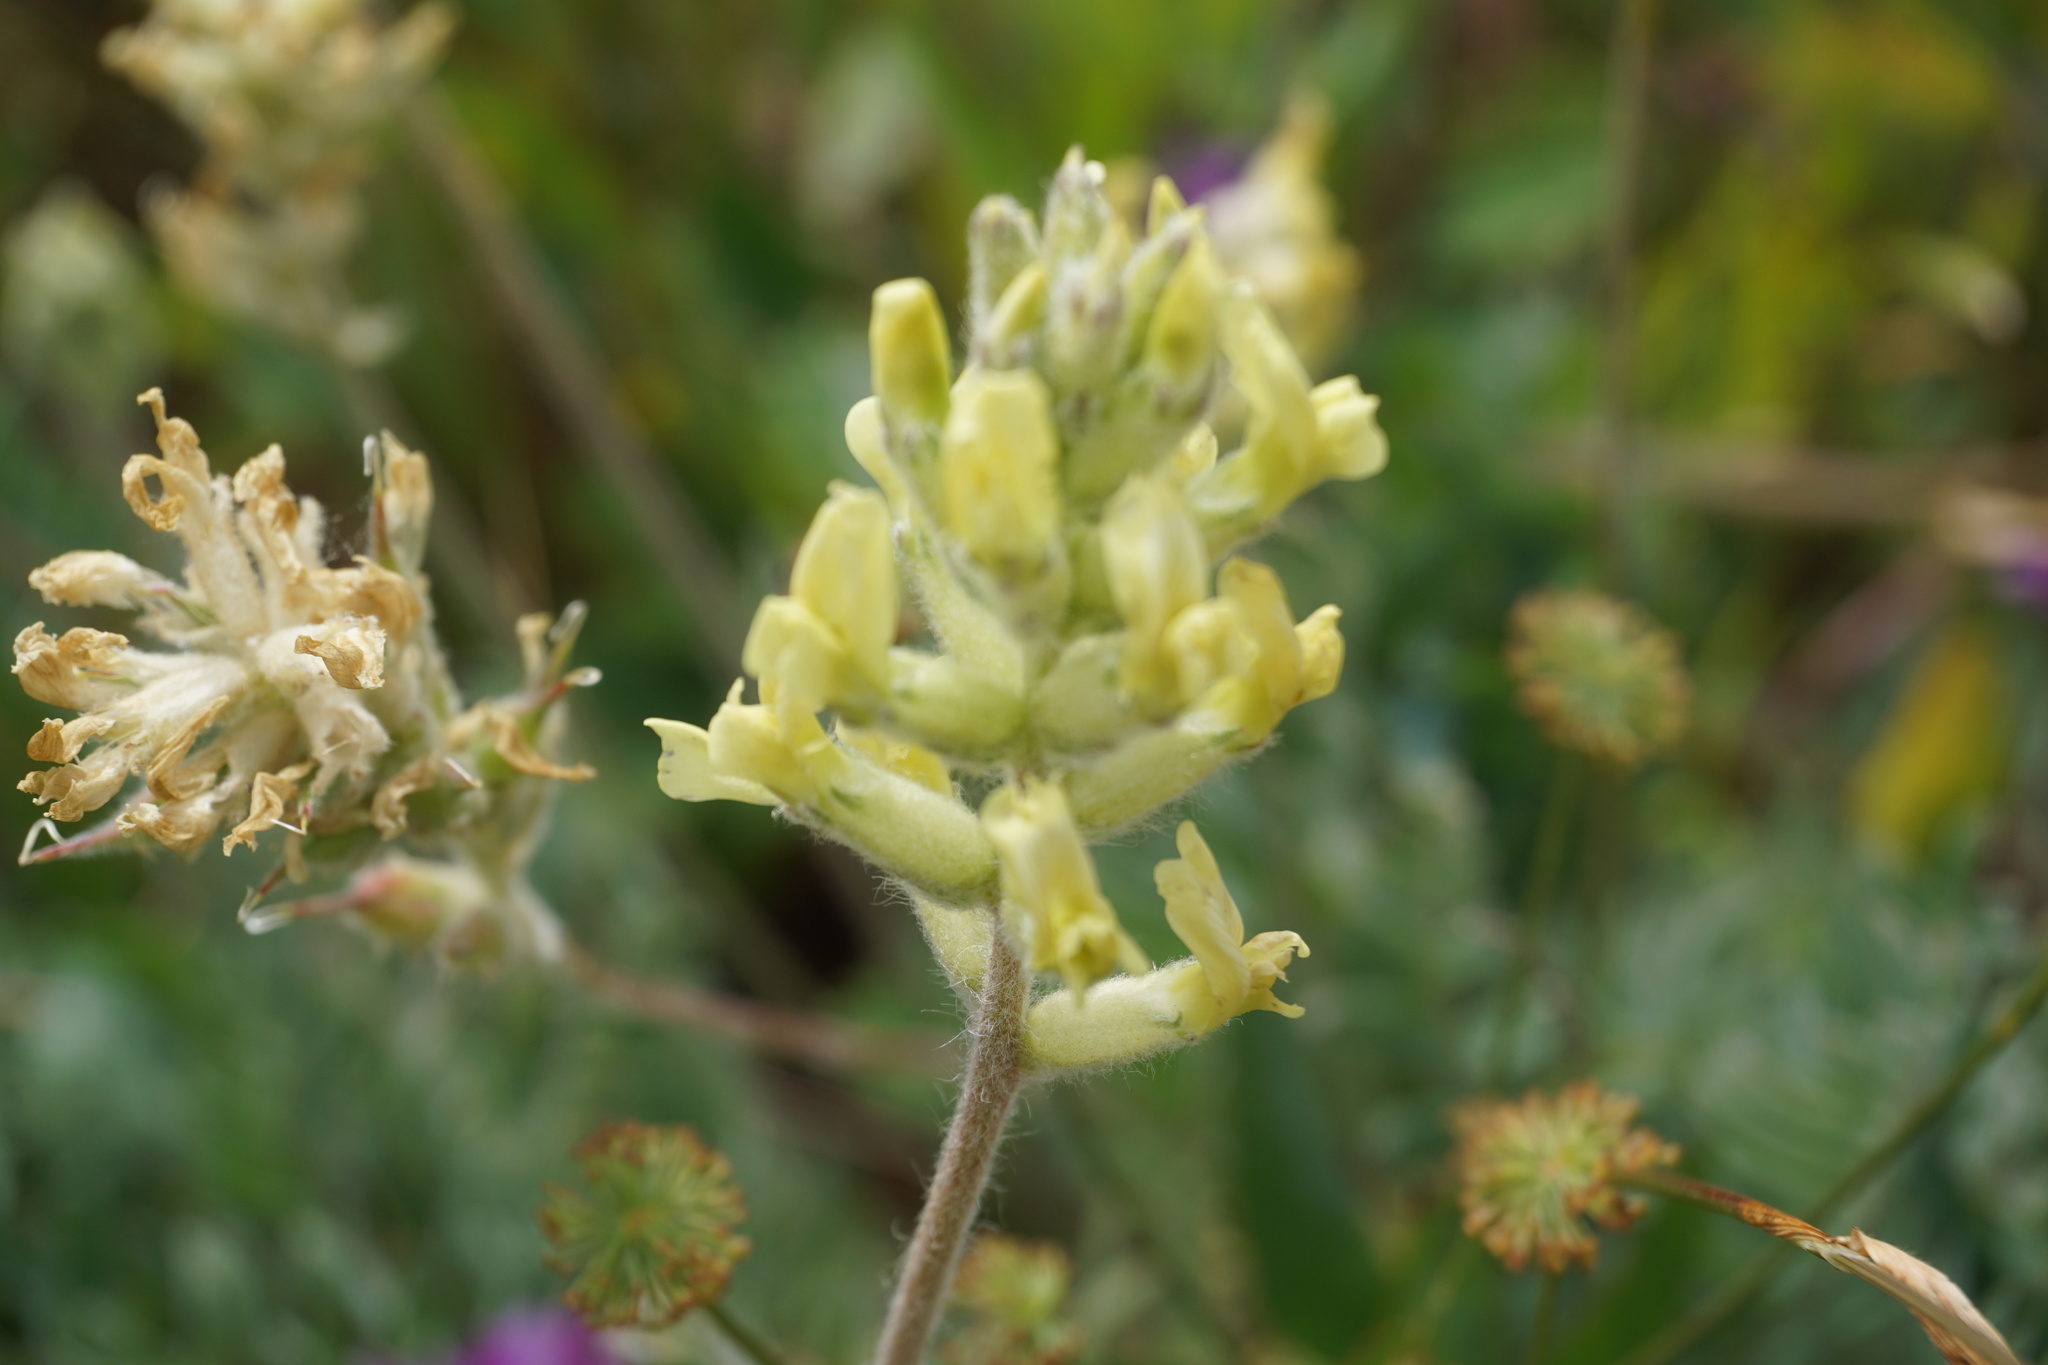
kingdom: Plantae
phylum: Tracheophyta
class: Magnoliopsida
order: Fabales
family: Fabaceae
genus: Oxytropis
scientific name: Oxytropis campestris
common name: Field locoweed
